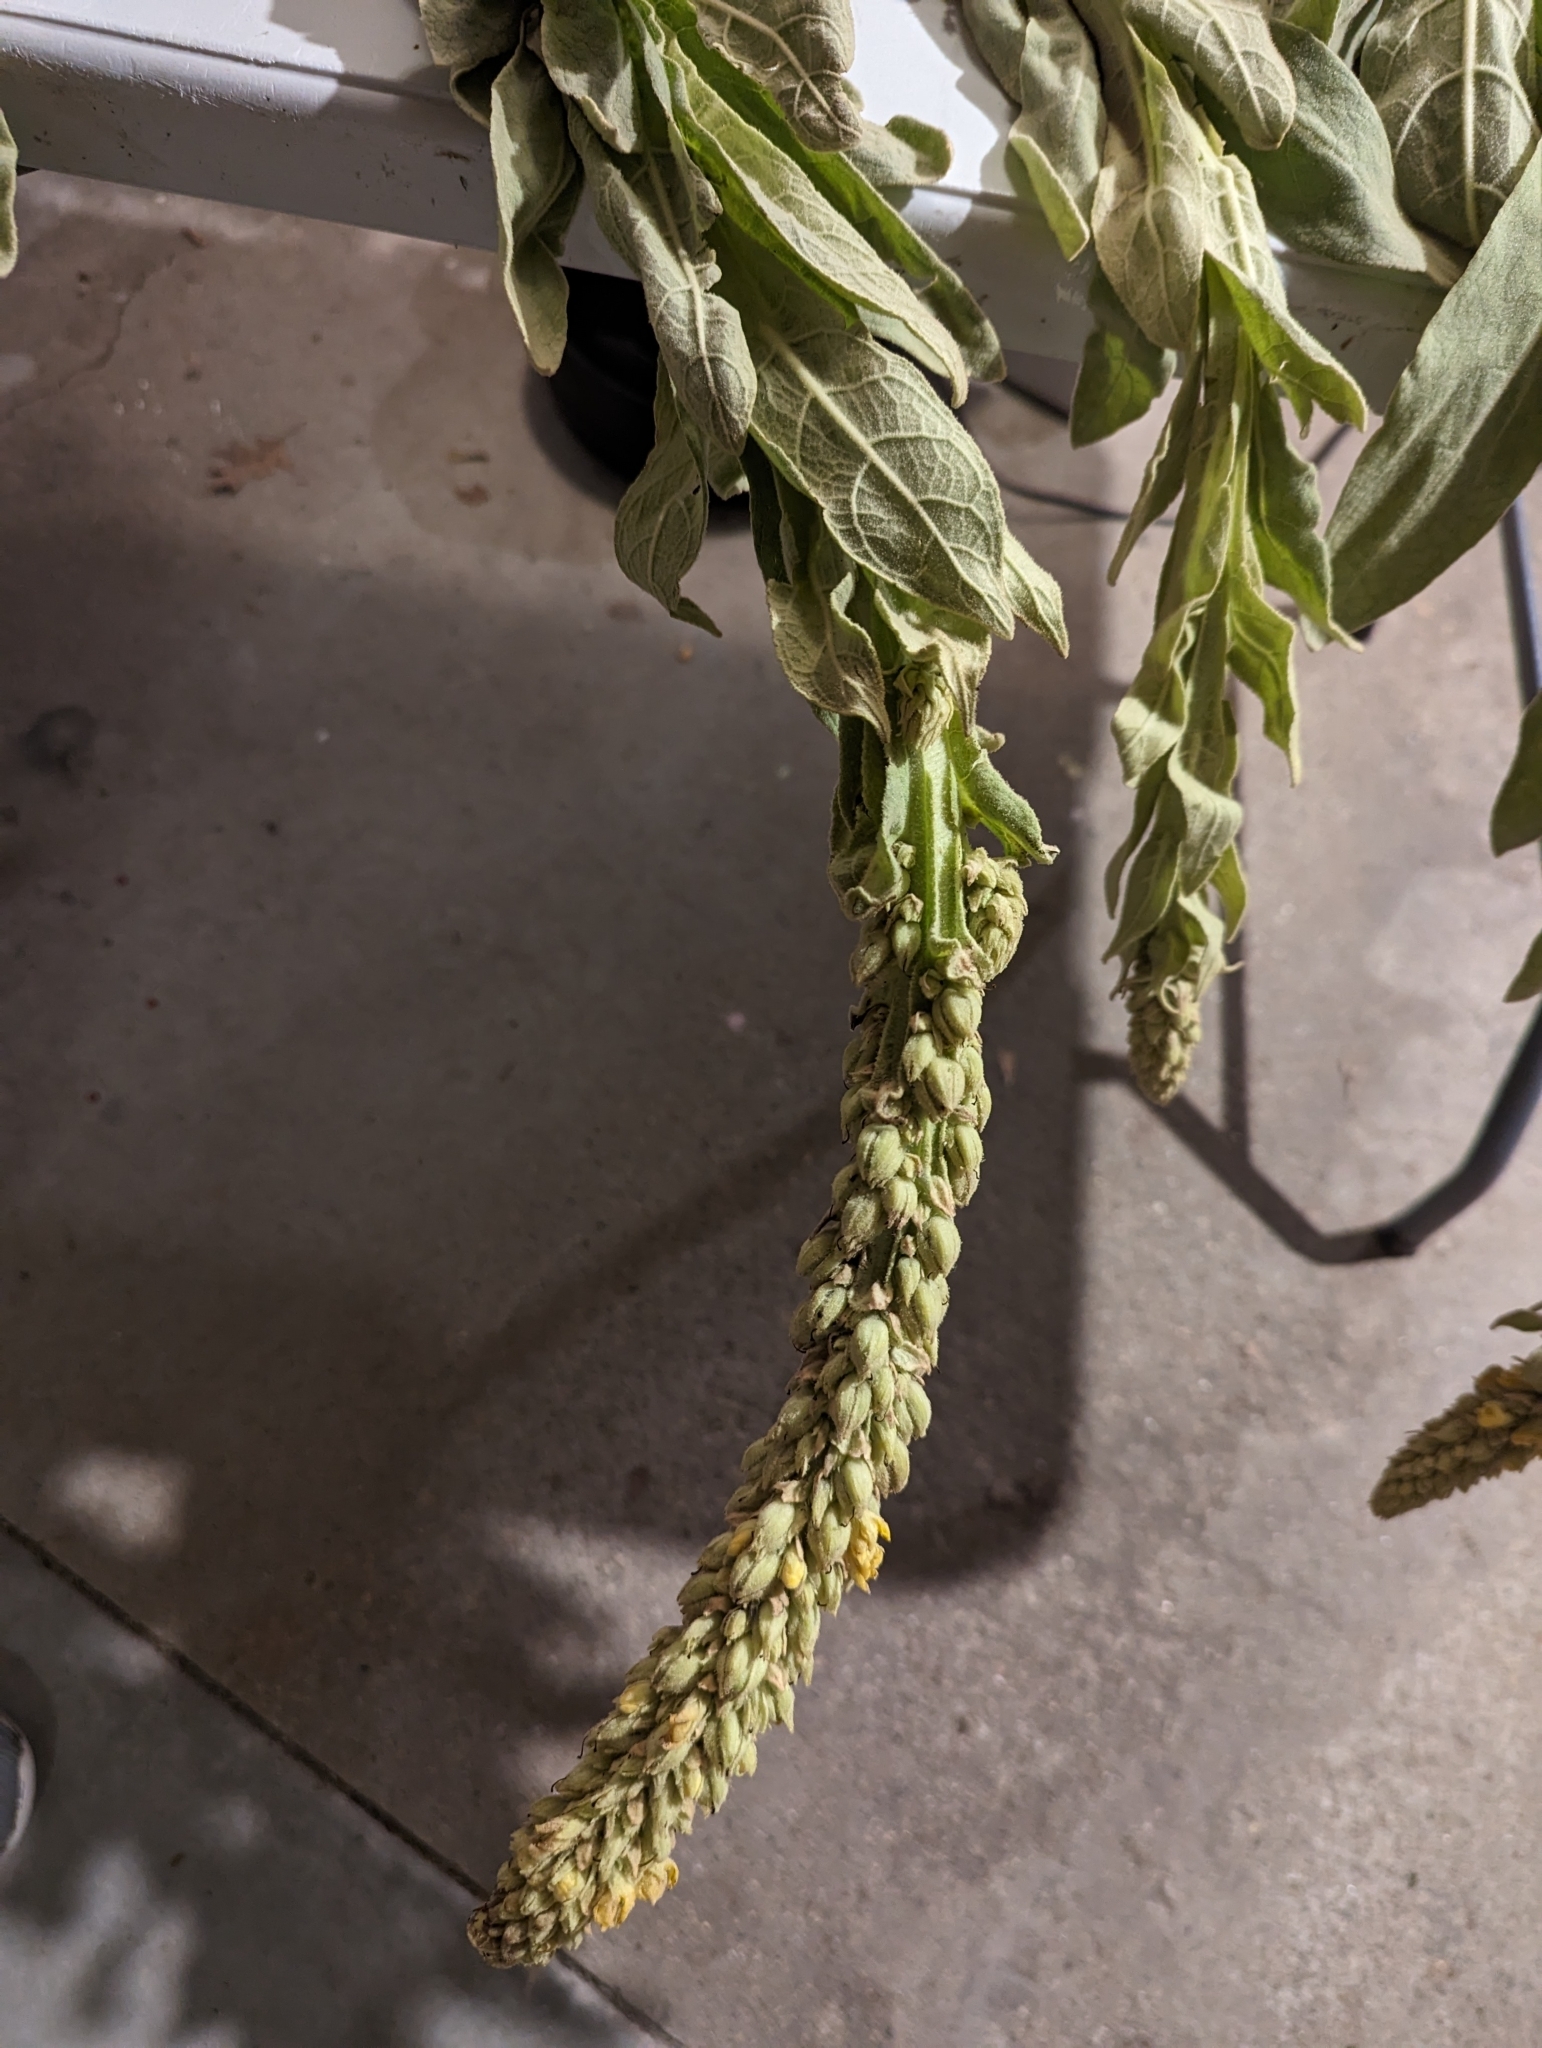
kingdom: Plantae
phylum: Tracheophyta
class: Magnoliopsida
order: Lamiales
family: Scrophulariaceae
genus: Verbascum
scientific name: Verbascum thapsus
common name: Common mullein
